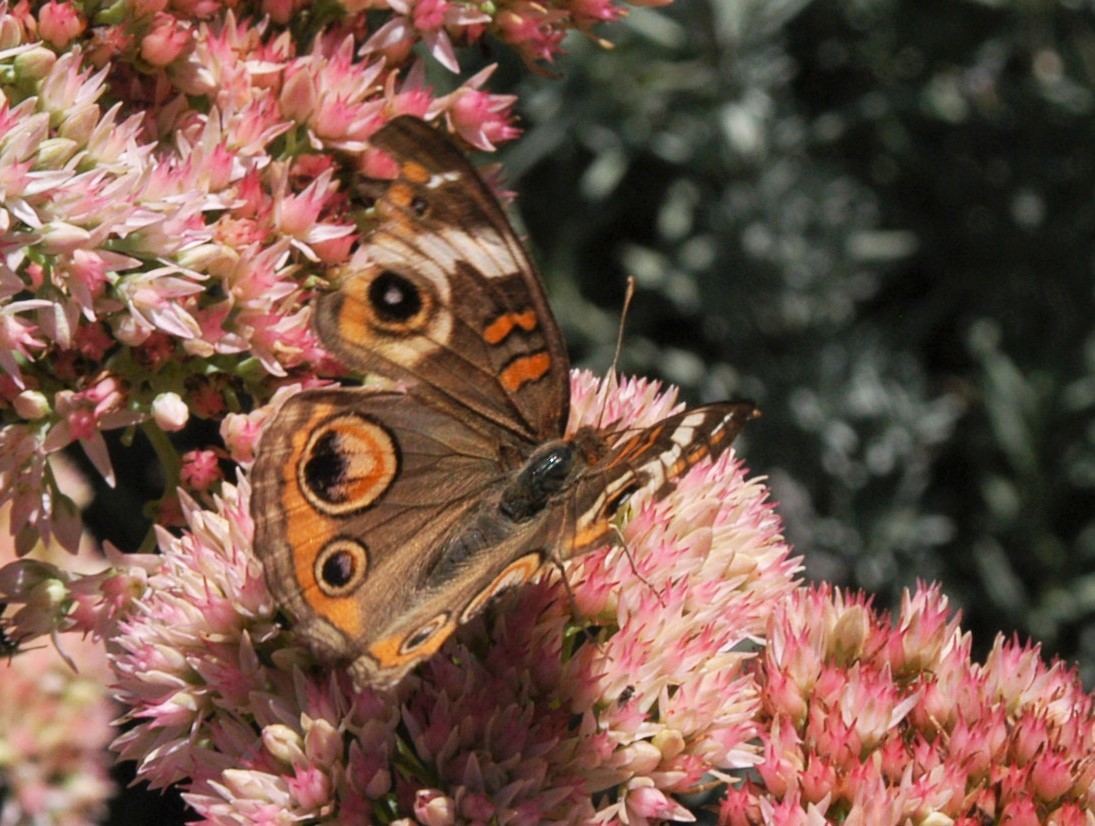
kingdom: Animalia
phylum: Arthropoda
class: Insecta
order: Lepidoptera
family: Nymphalidae
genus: Junonia
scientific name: Junonia coenia
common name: Common buckeye
